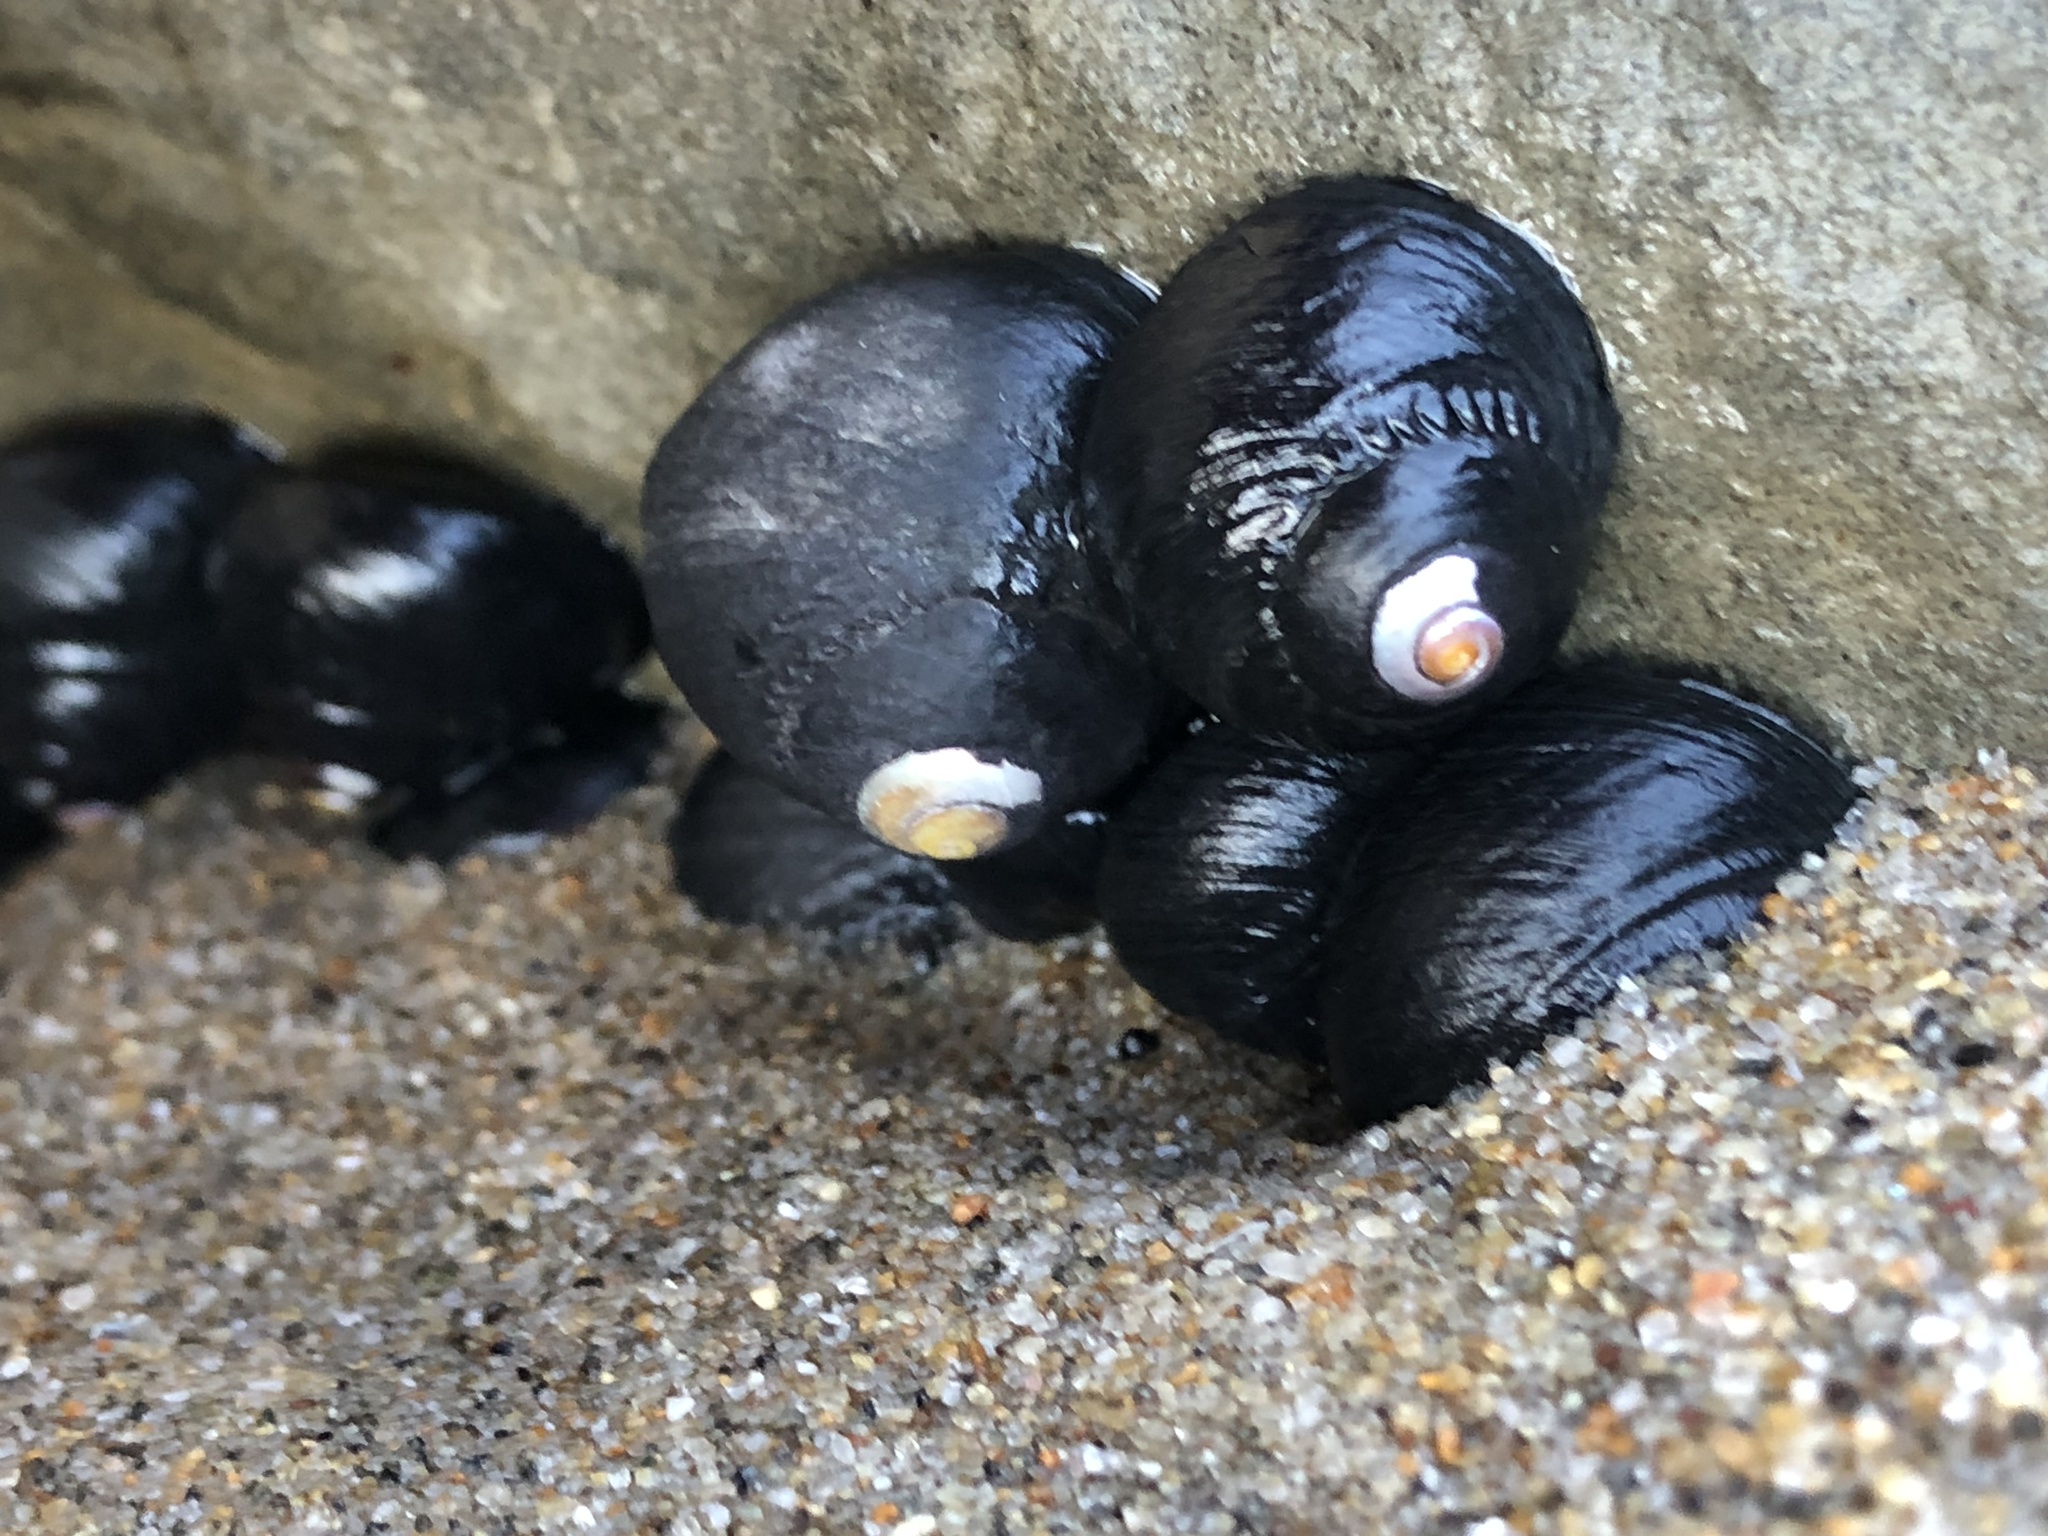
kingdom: Animalia
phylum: Mollusca
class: Gastropoda
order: Trochida
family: Tegulidae
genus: Tegula
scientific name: Tegula funebralis
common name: Black tegula
